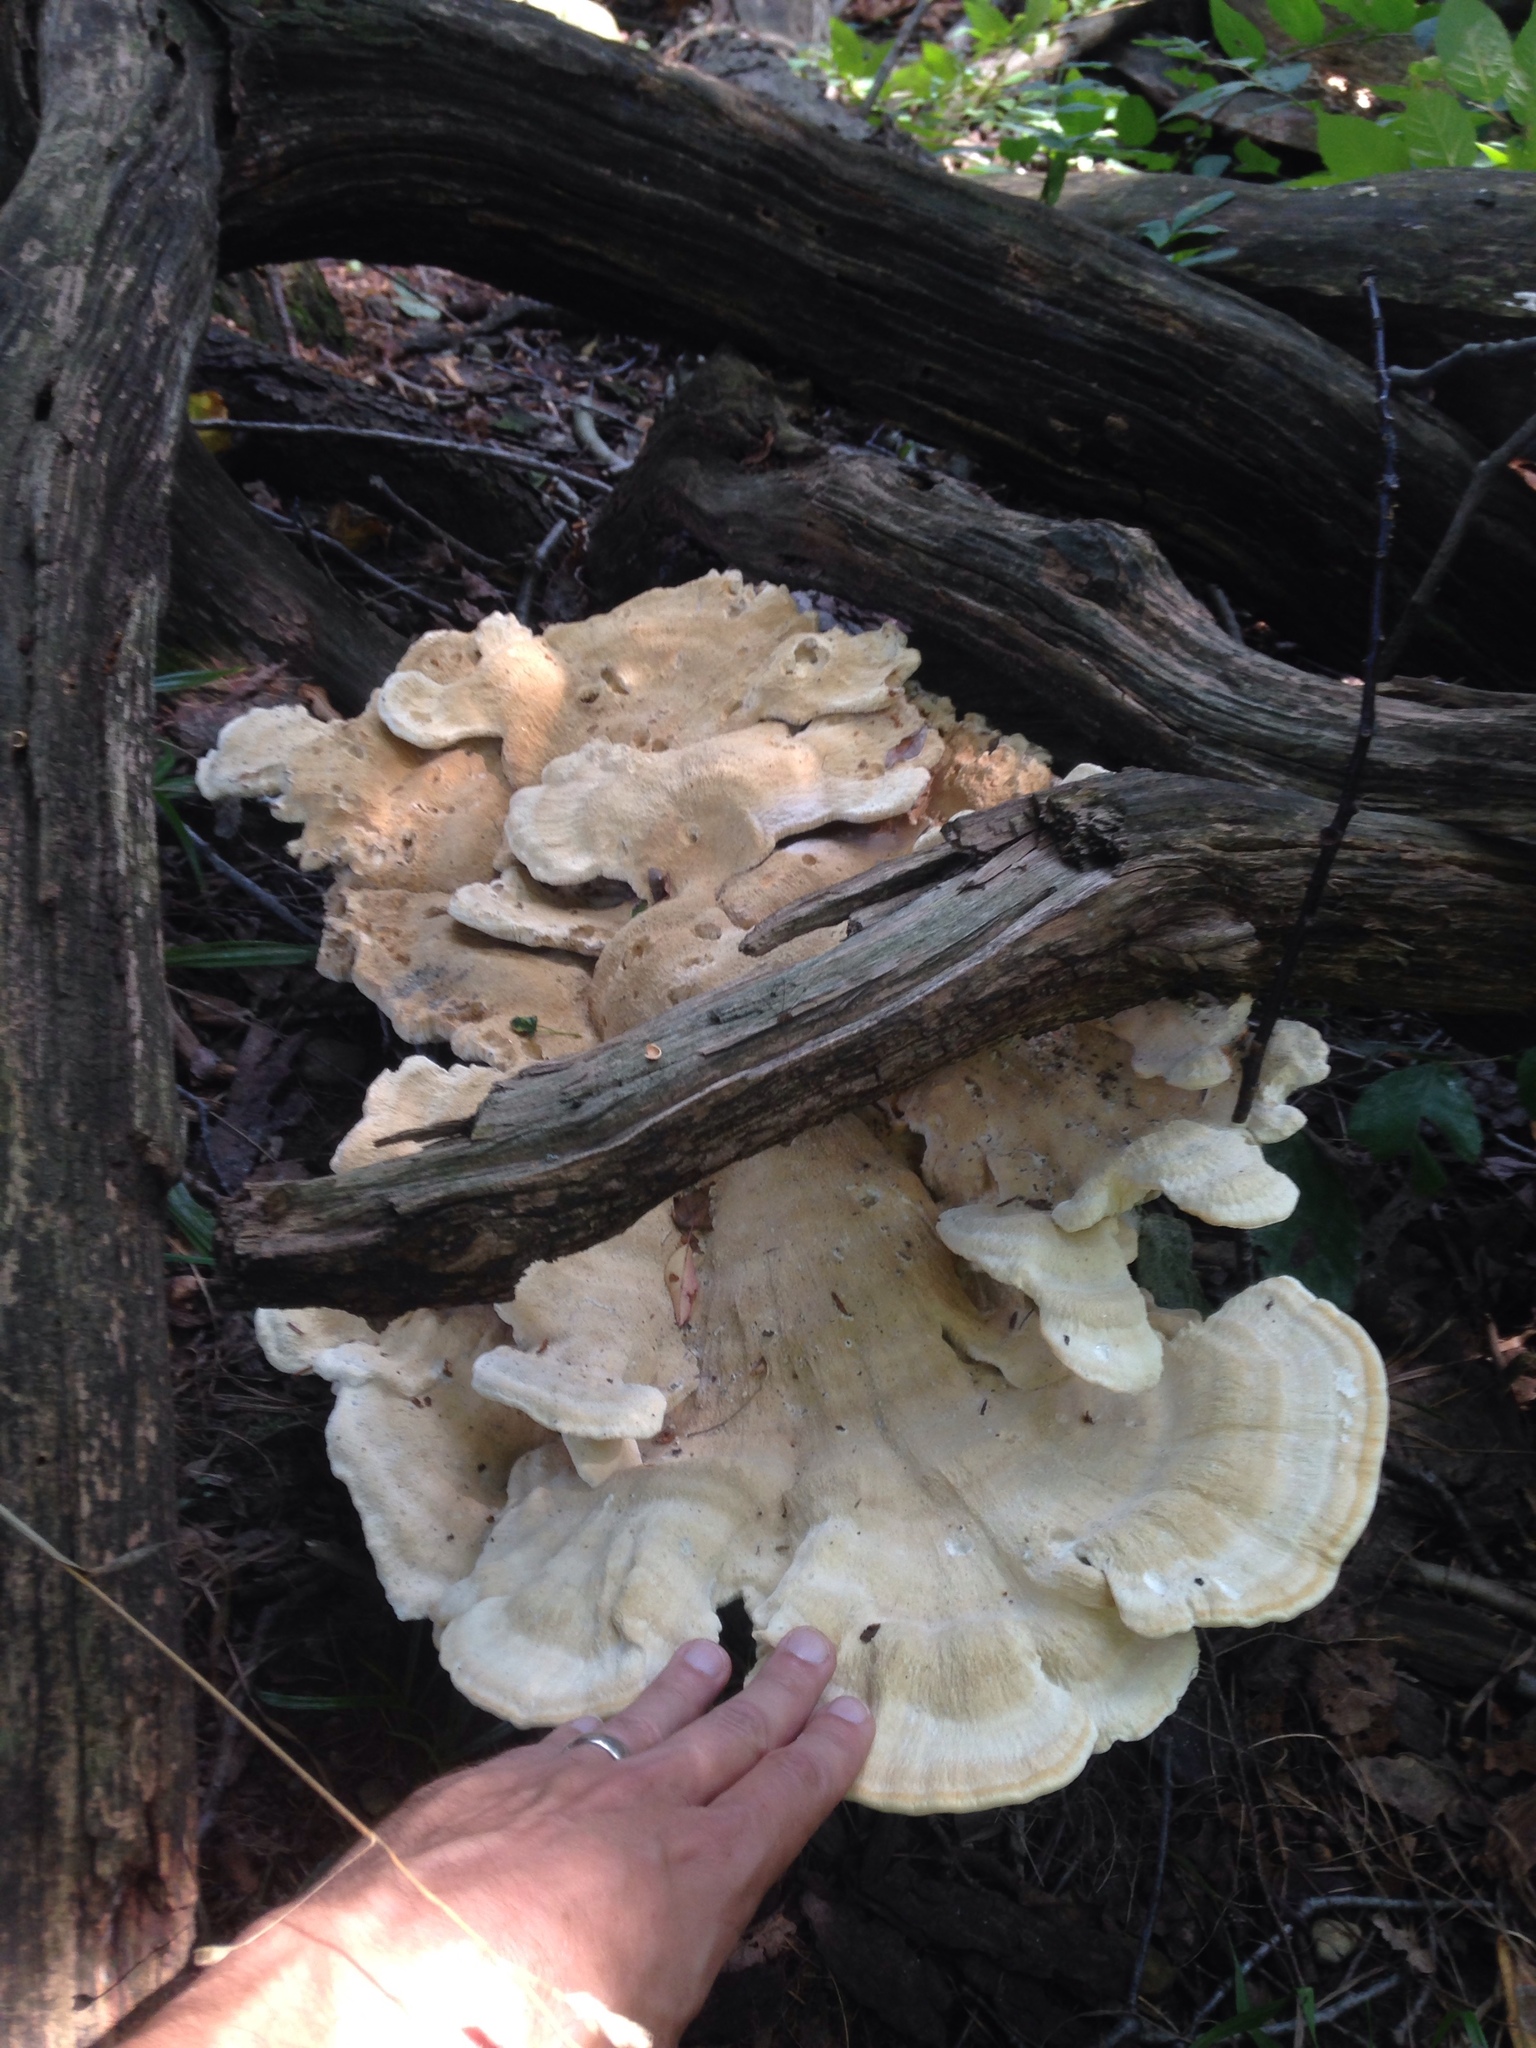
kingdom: Fungi
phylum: Basidiomycota
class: Agaricomycetes
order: Russulales
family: Bondarzewiaceae
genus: Bondarzewia
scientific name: Bondarzewia berkeleyi
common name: Berkeley's polypore
